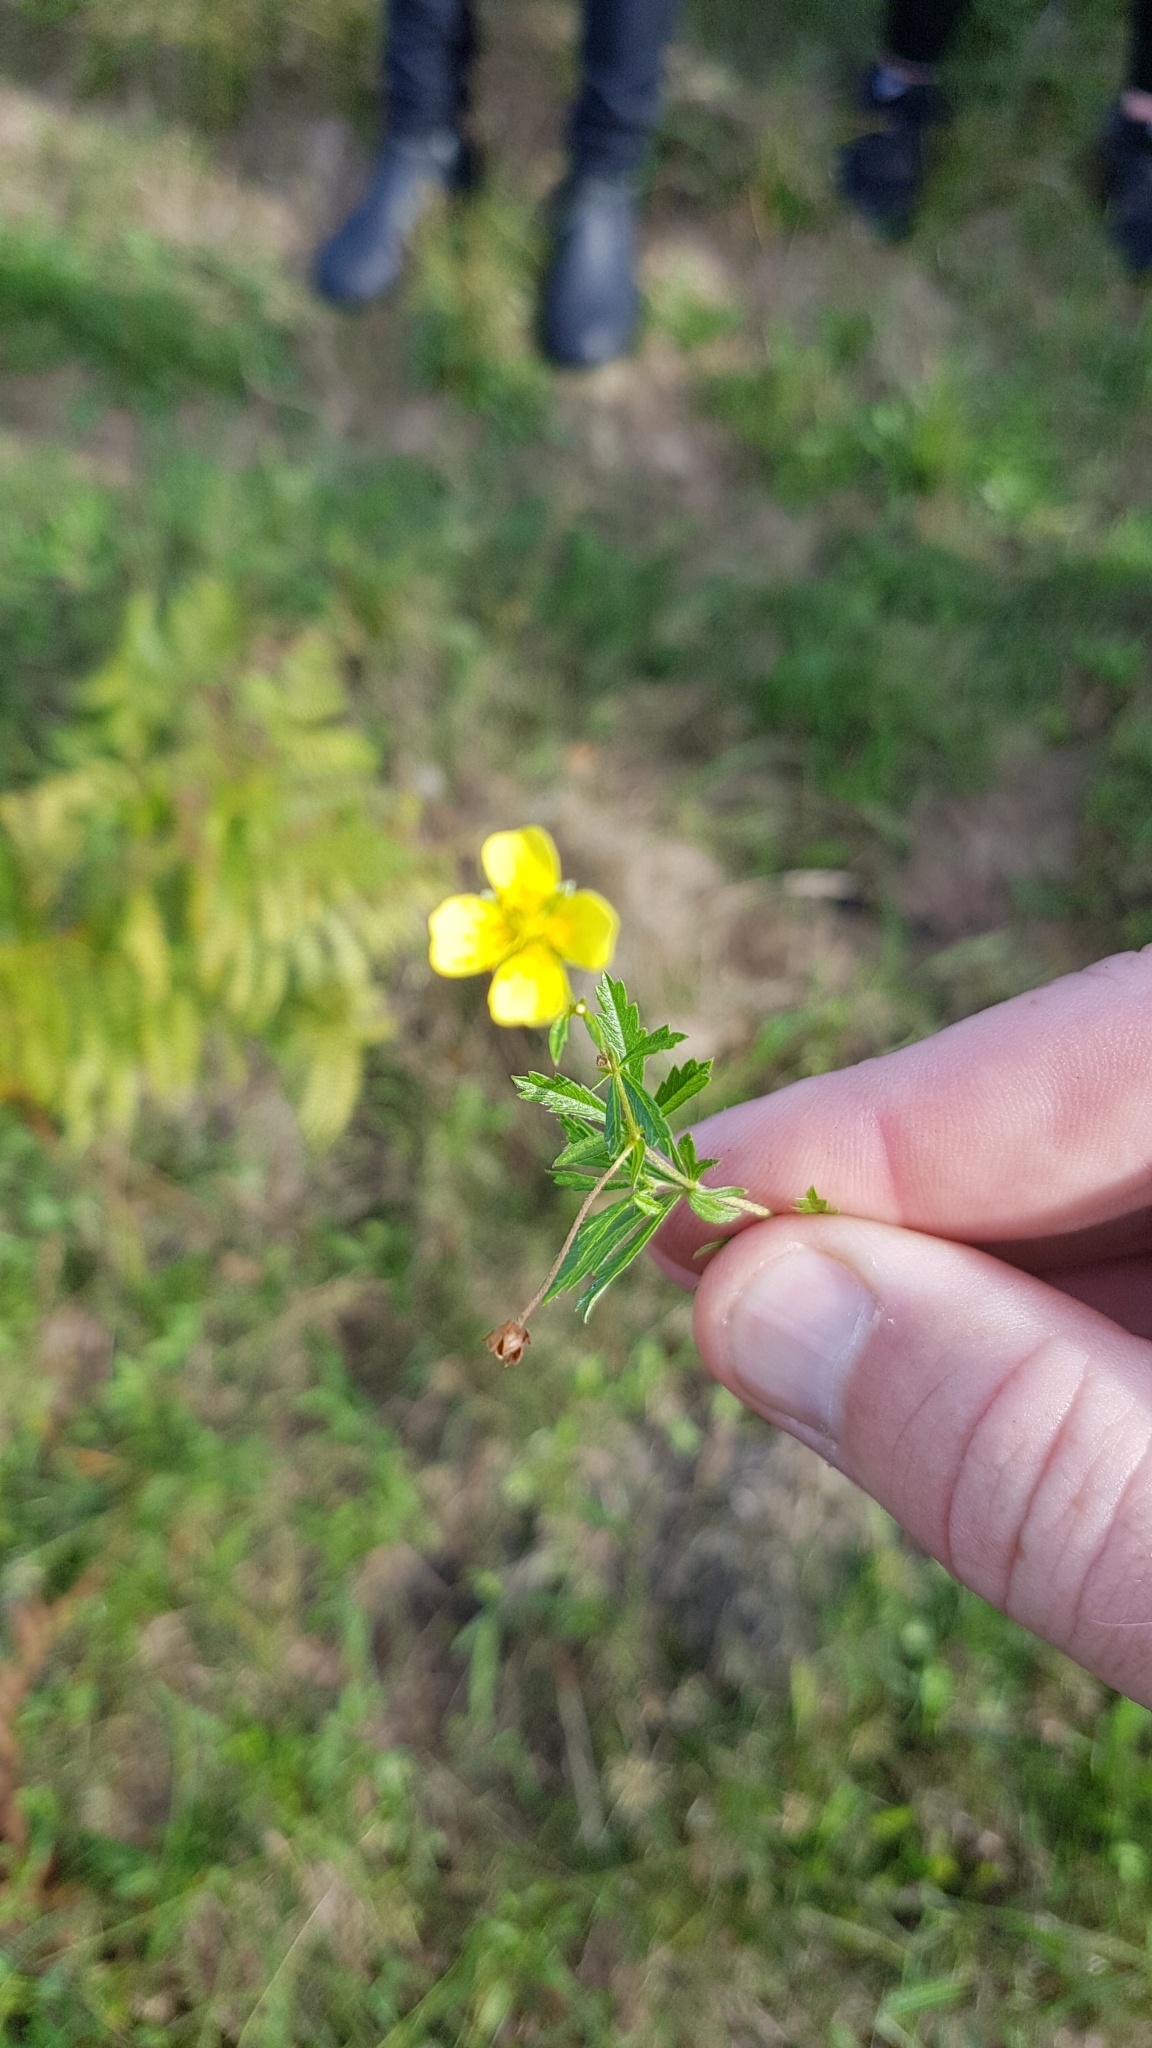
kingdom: Plantae
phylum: Tracheophyta
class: Magnoliopsida
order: Rosales
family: Rosaceae
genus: Potentilla
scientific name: Potentilla erecta
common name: Tormentil
